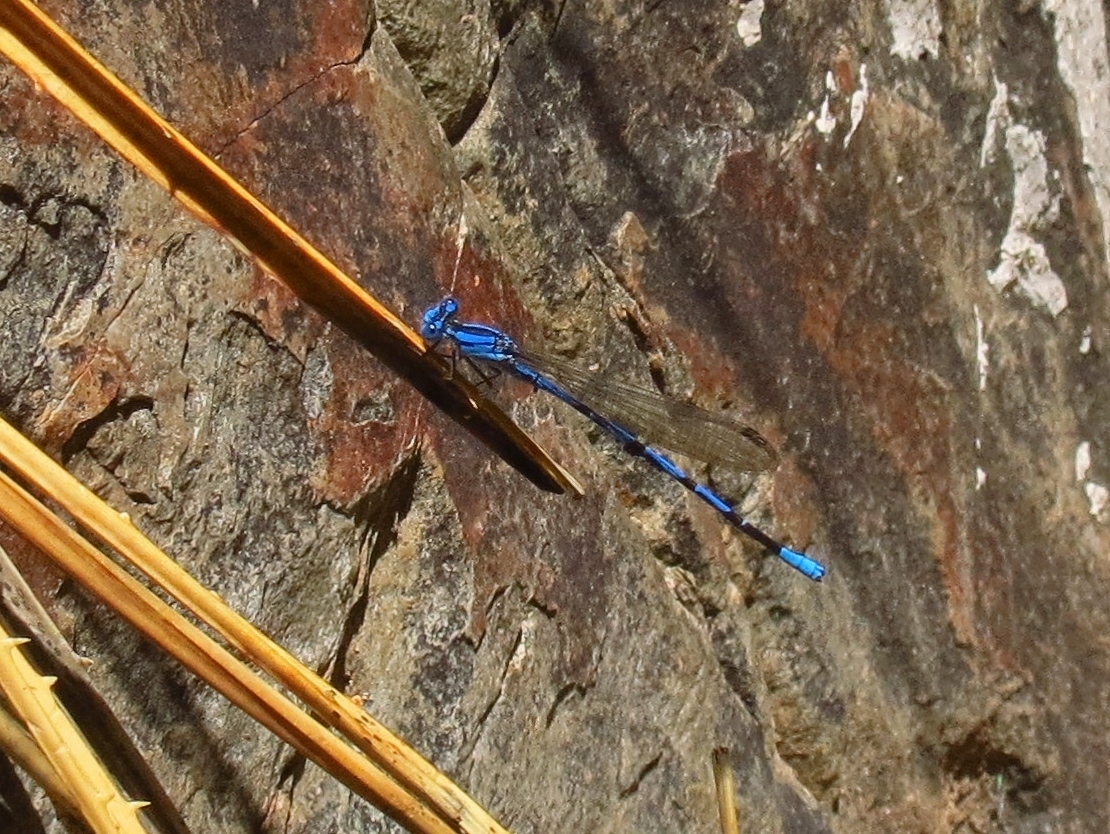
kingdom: Animalia
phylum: Arthropoda
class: Insecta
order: Odonata
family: Coenagrionidae
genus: Argia
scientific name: Argia funebris
